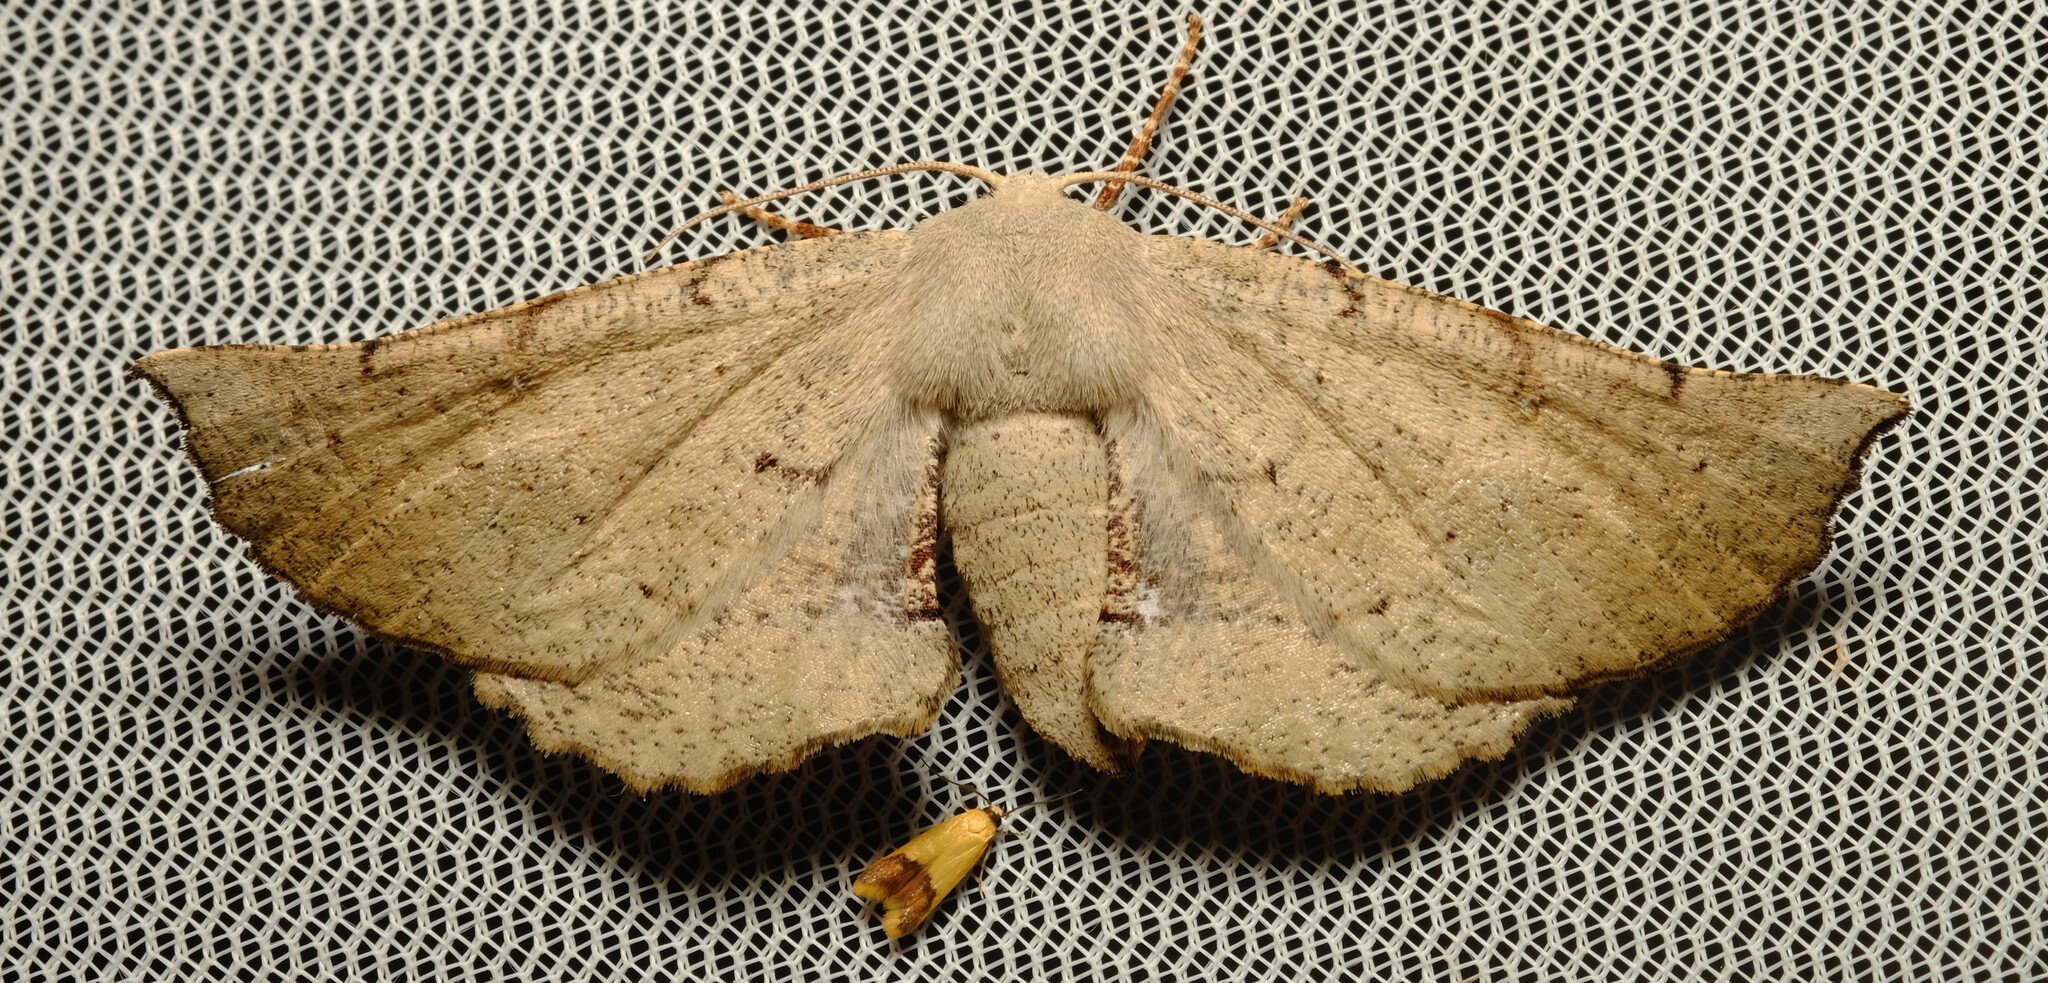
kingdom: Animalia
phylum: Arthropoda
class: Insecta
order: Lepidoptera
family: Geometridae
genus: Circopetes
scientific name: Circopetes obtusata
